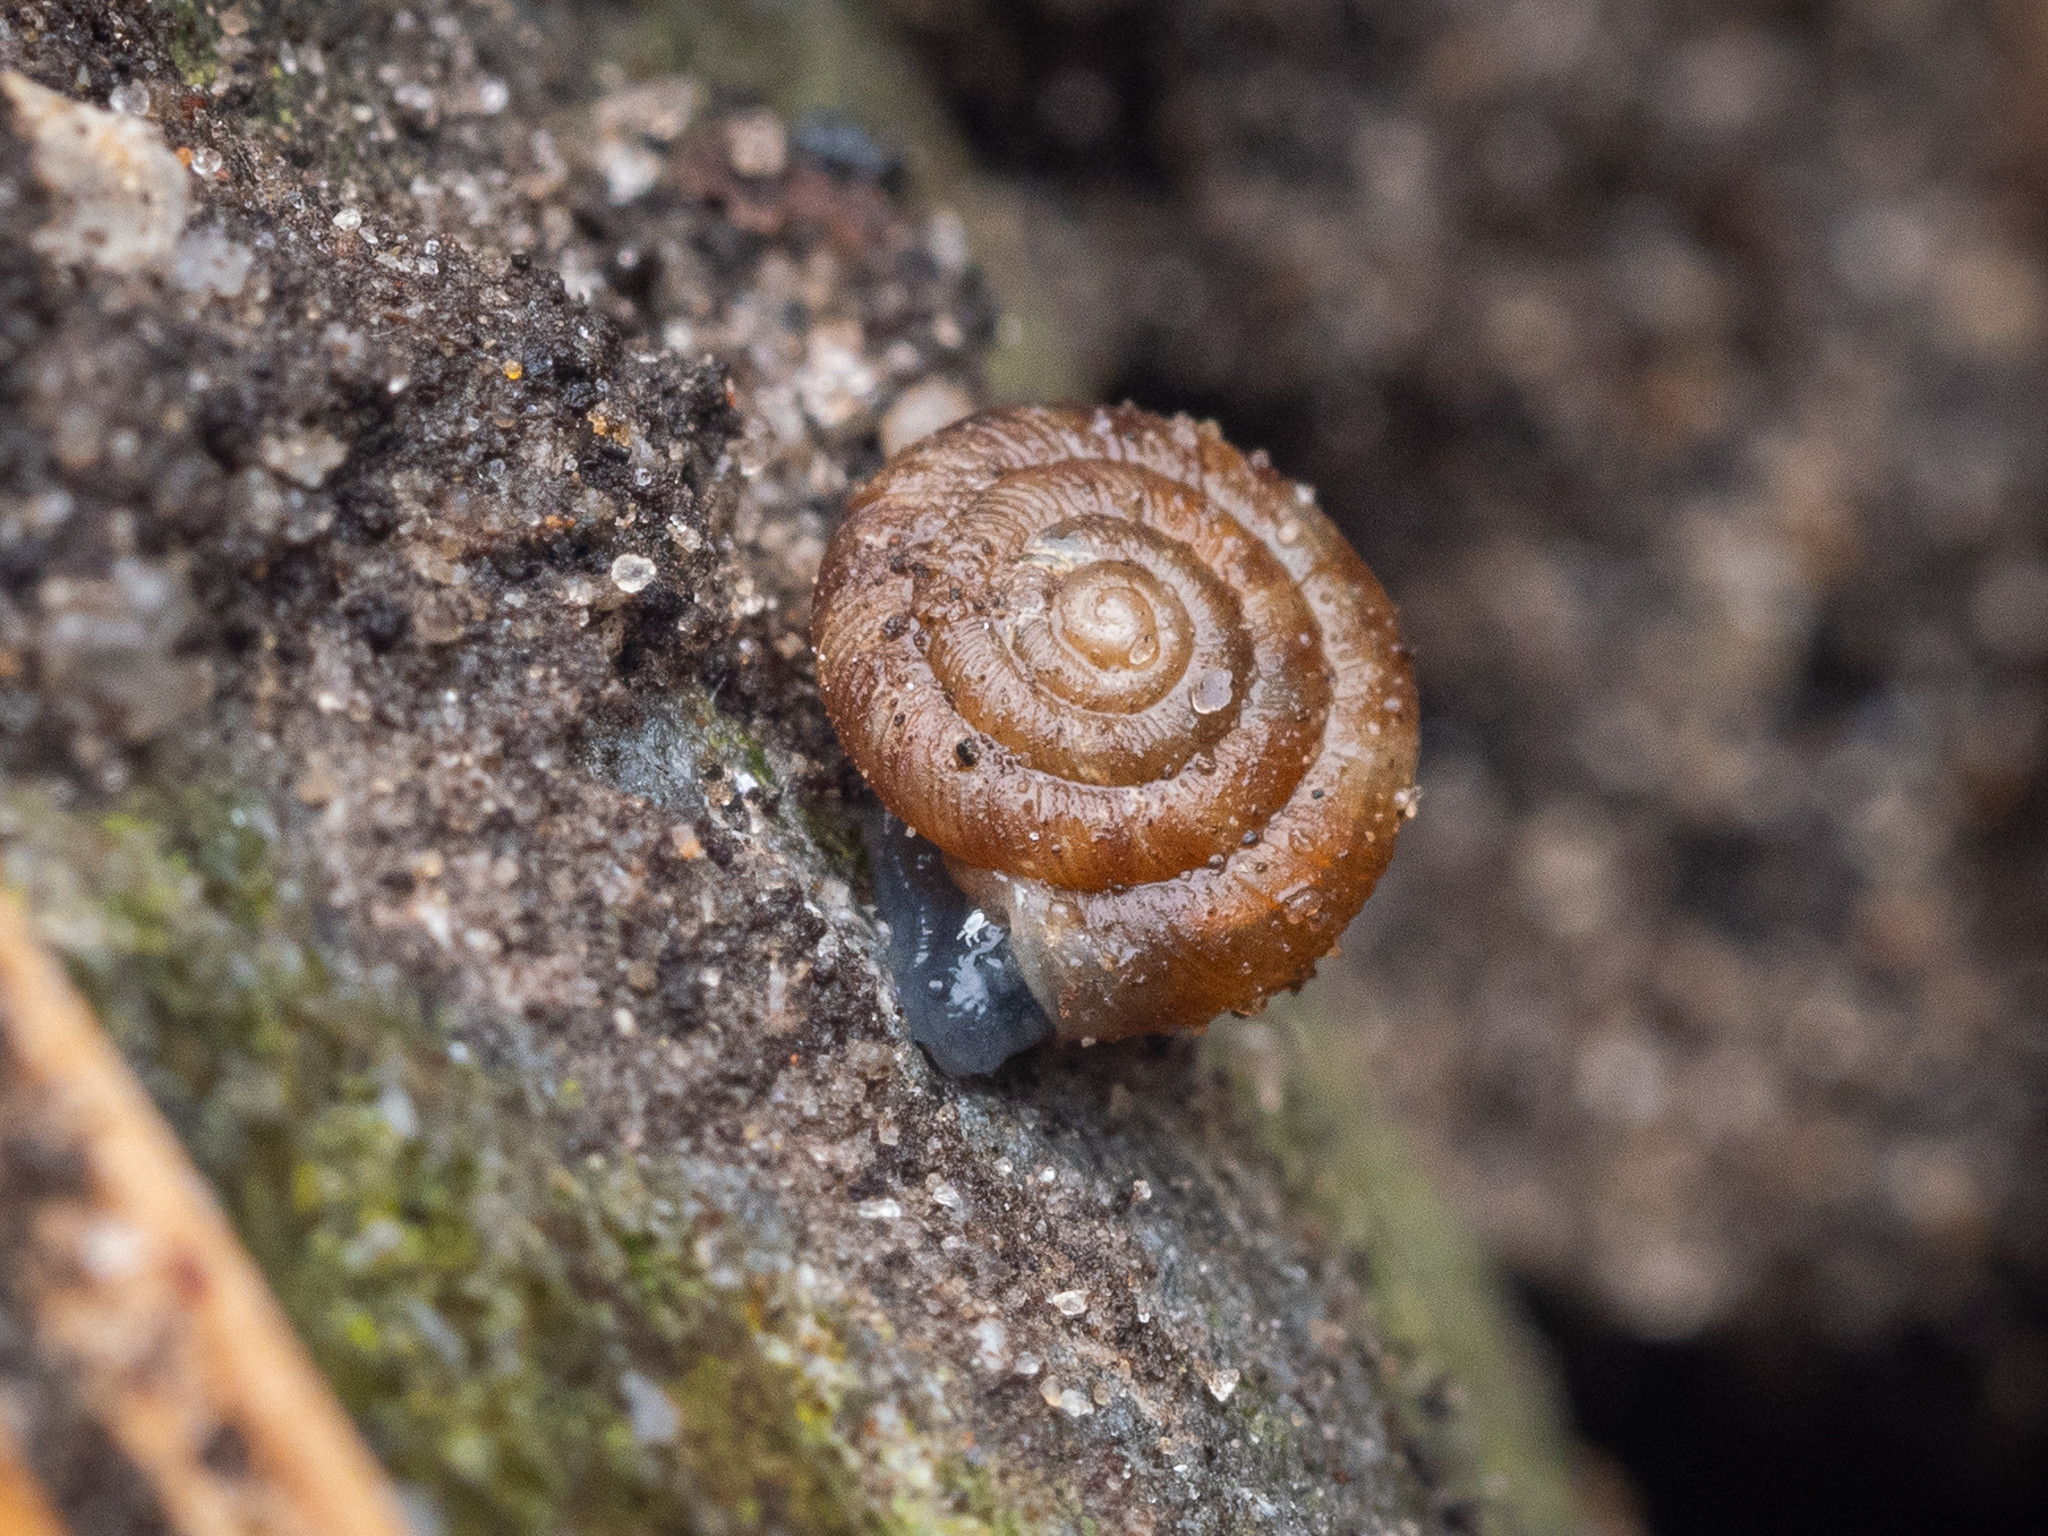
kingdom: Animalia
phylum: Mollusca
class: Gastropoda
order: Stylommatophora
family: Discidae
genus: Discus
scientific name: Discus rotundatus
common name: Rounded snail
